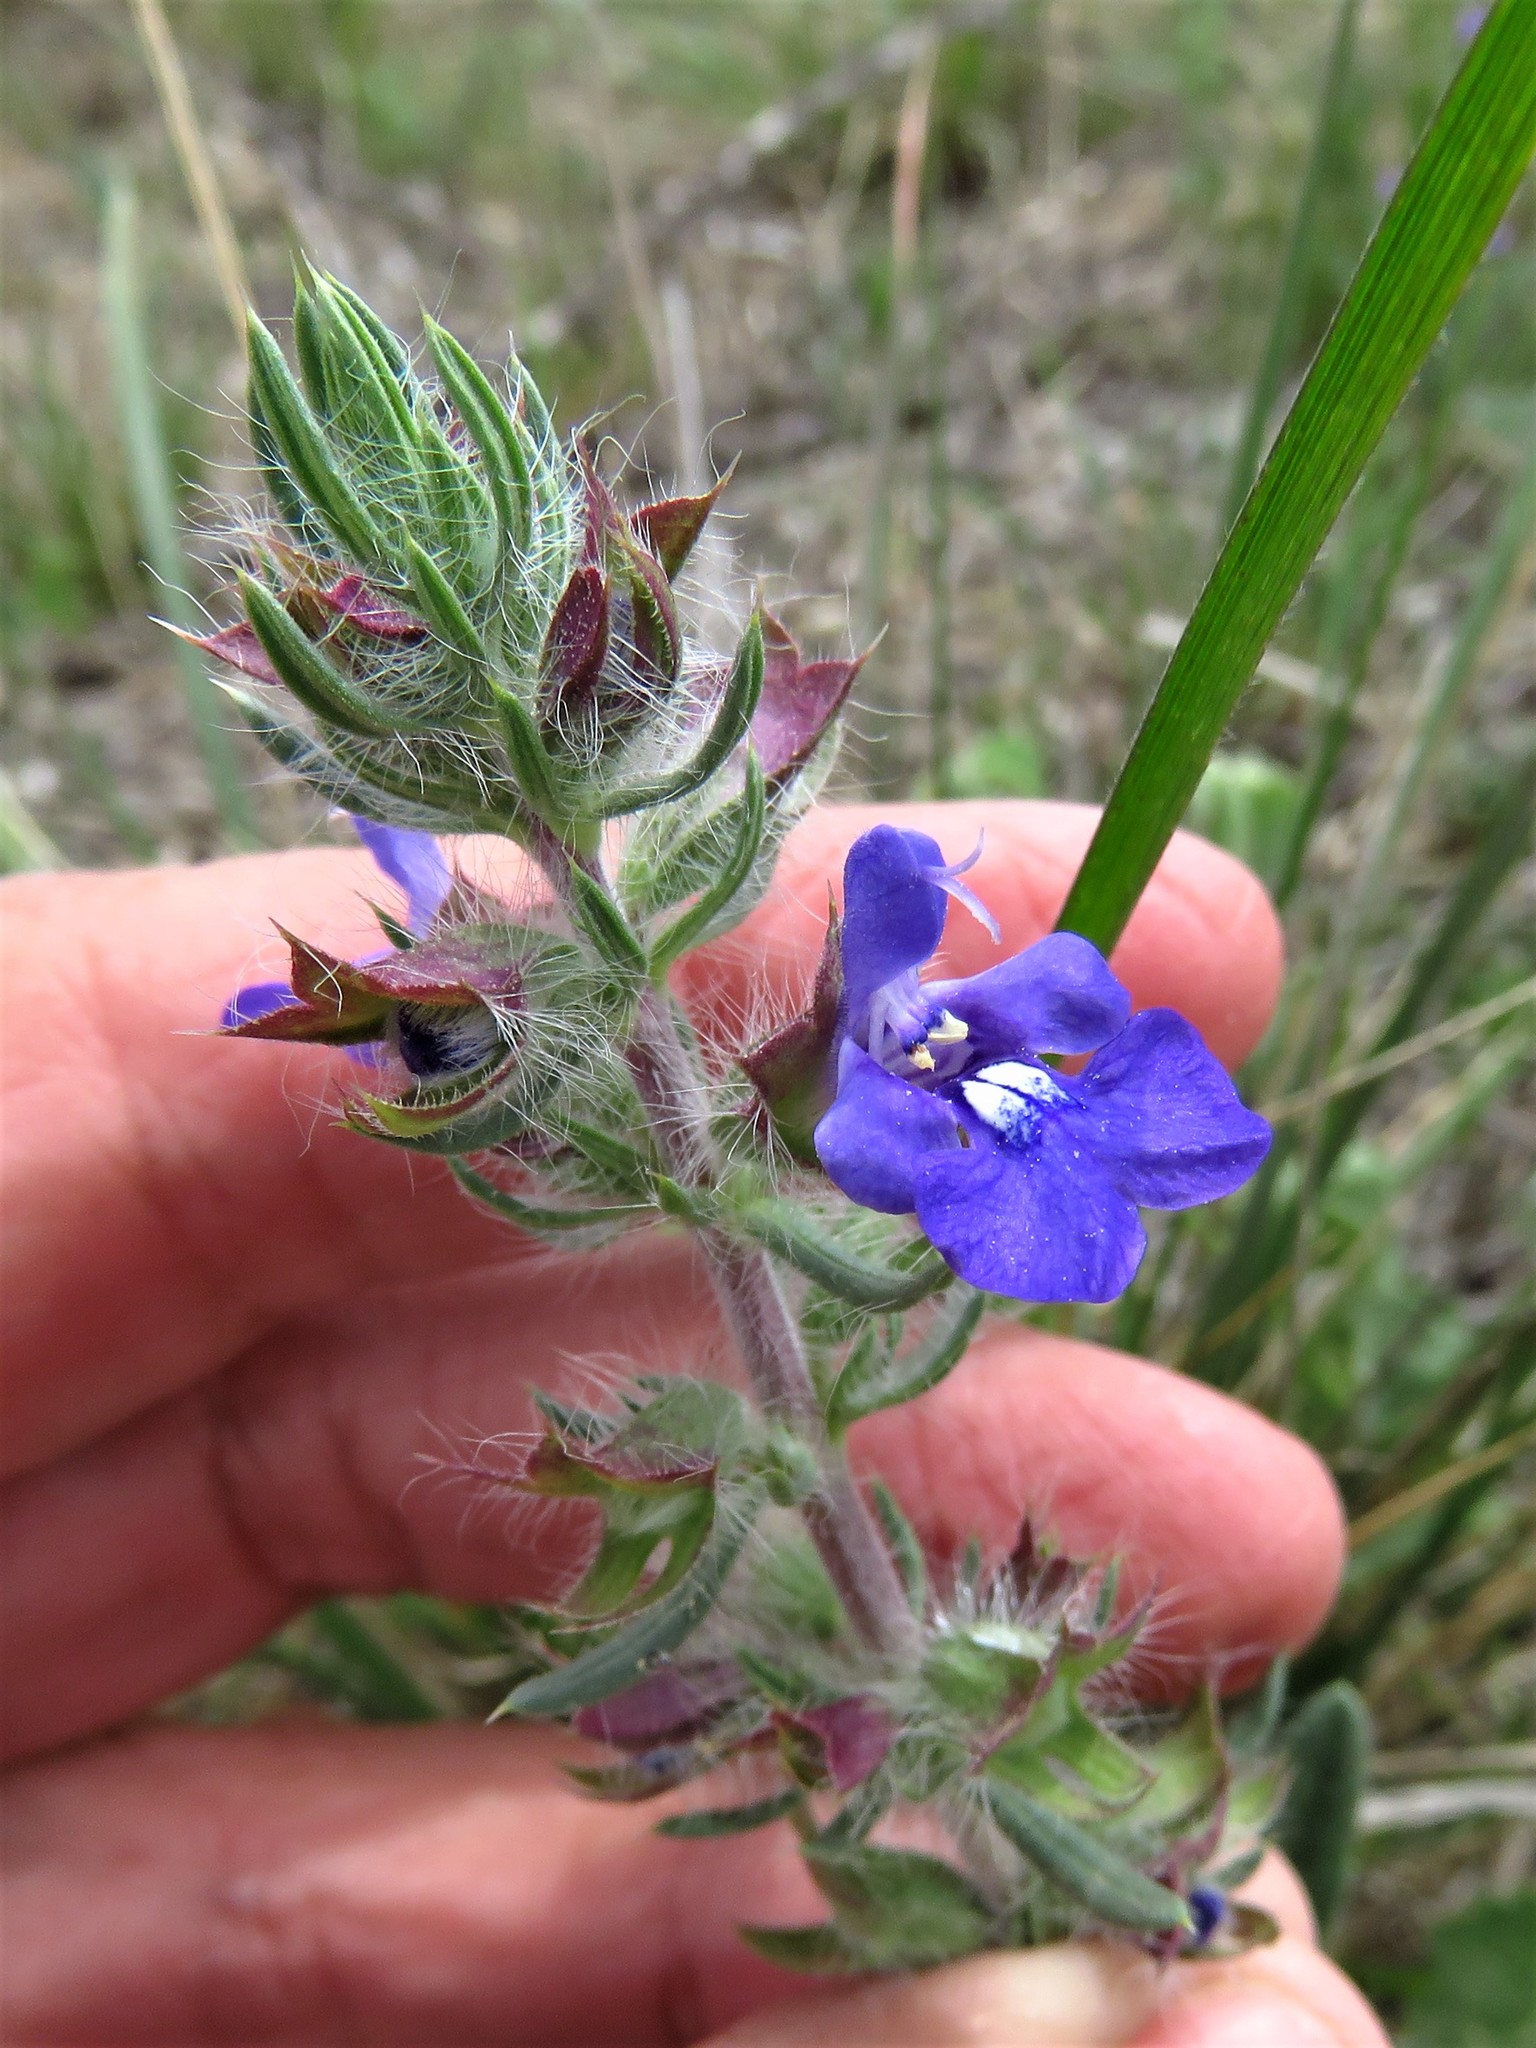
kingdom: Plantae
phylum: Tracheophyta
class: Magnoliopsida
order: Lamiales
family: Lamiaceae
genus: Salvia
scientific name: Salvia texana
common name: Texas sage
